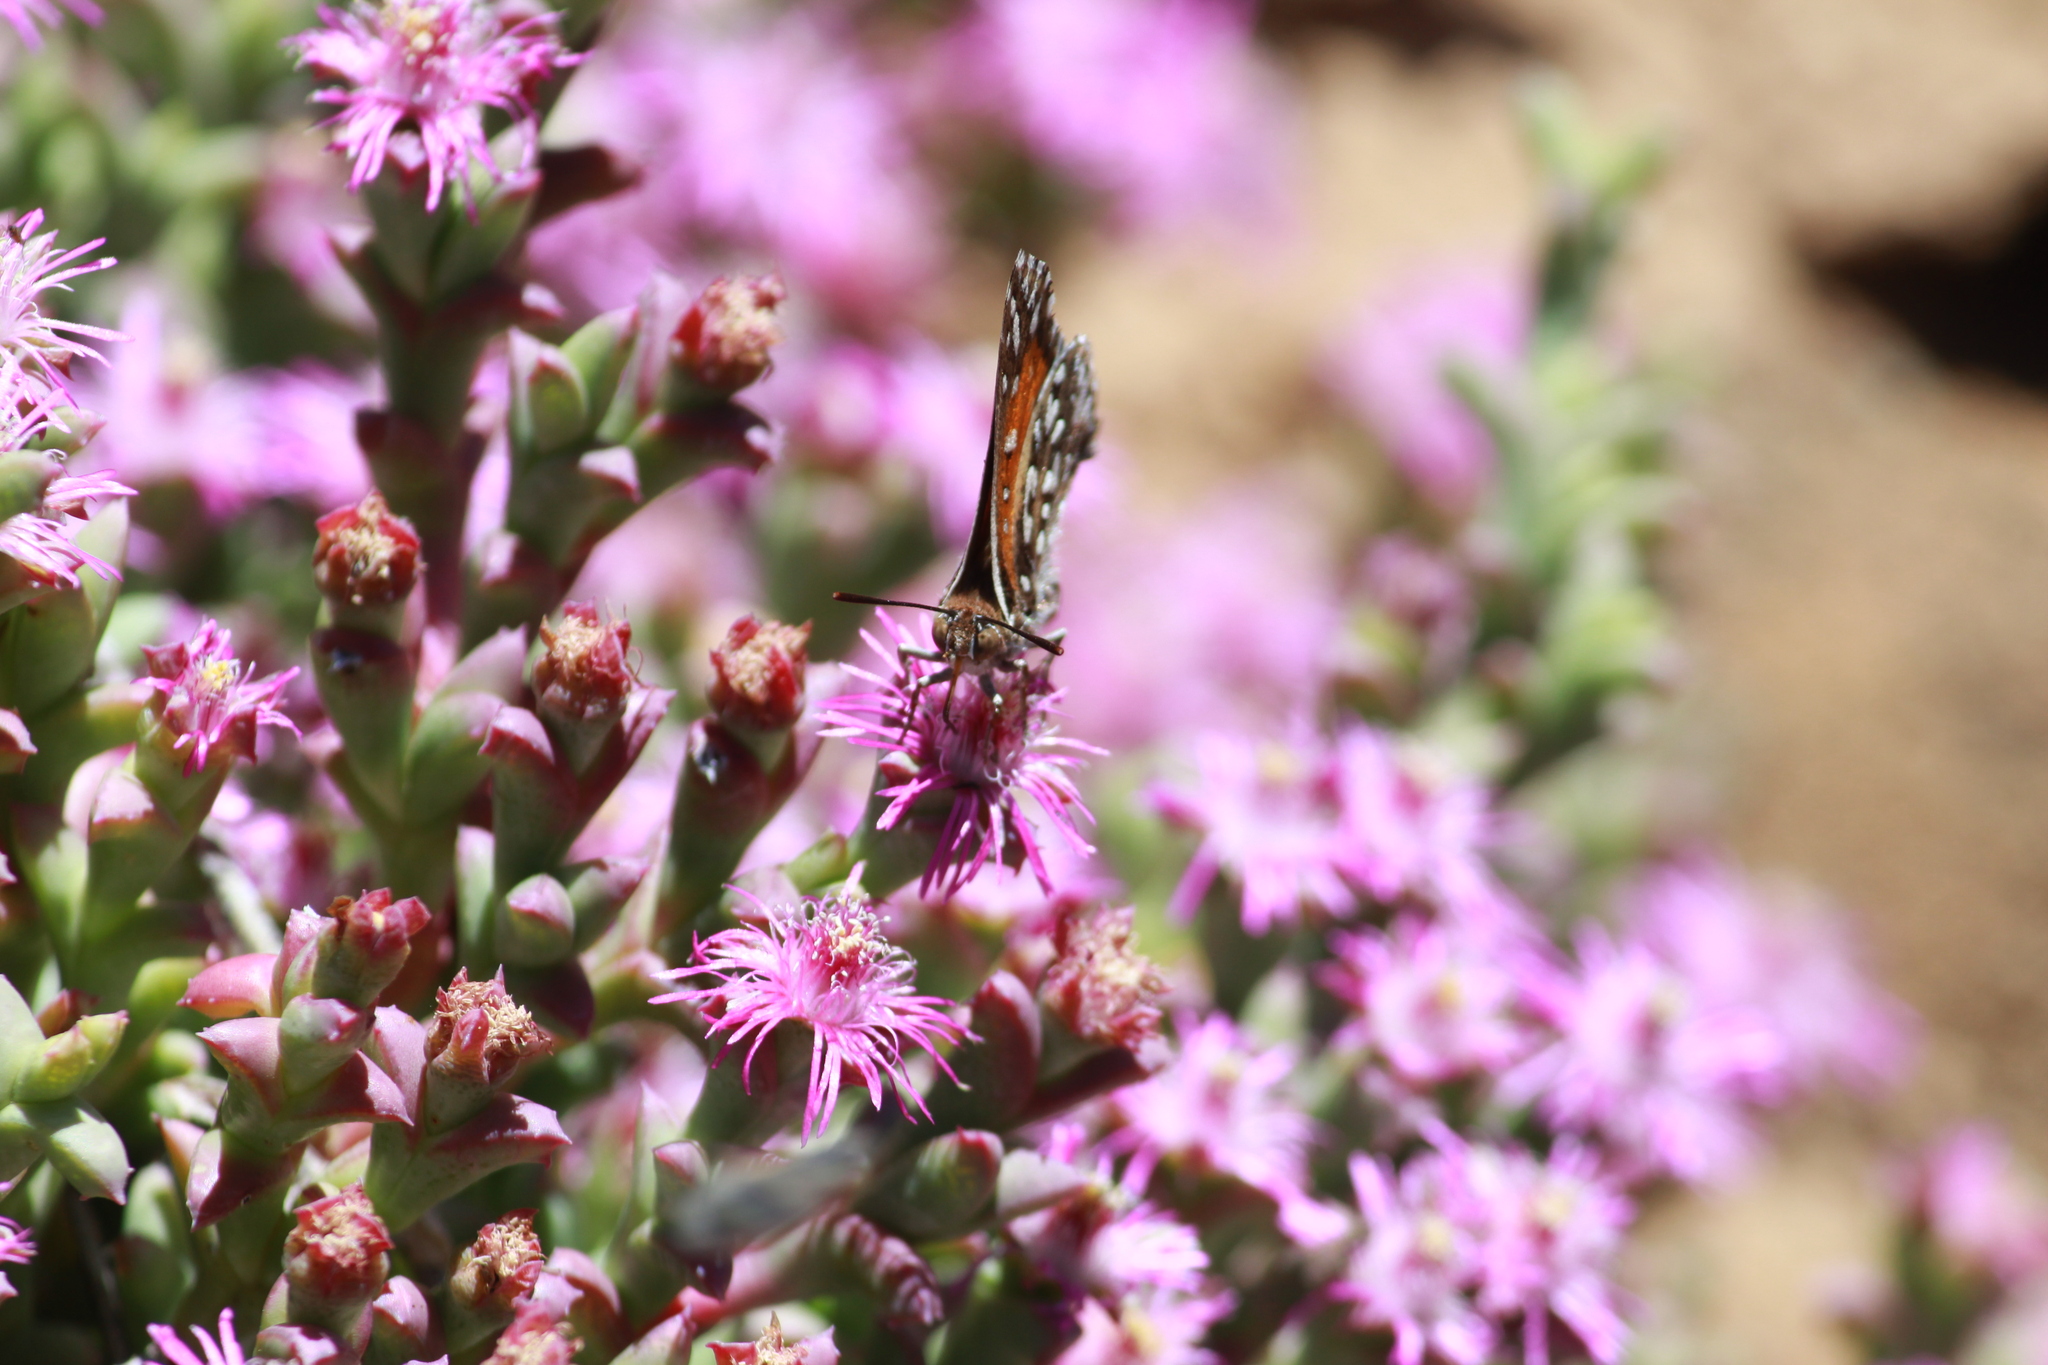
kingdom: Animalia
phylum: Arthropoda
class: Insecta
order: Lepidoptera
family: Lycaenidae
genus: Trimenia
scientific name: Trimenia argyroplaga
